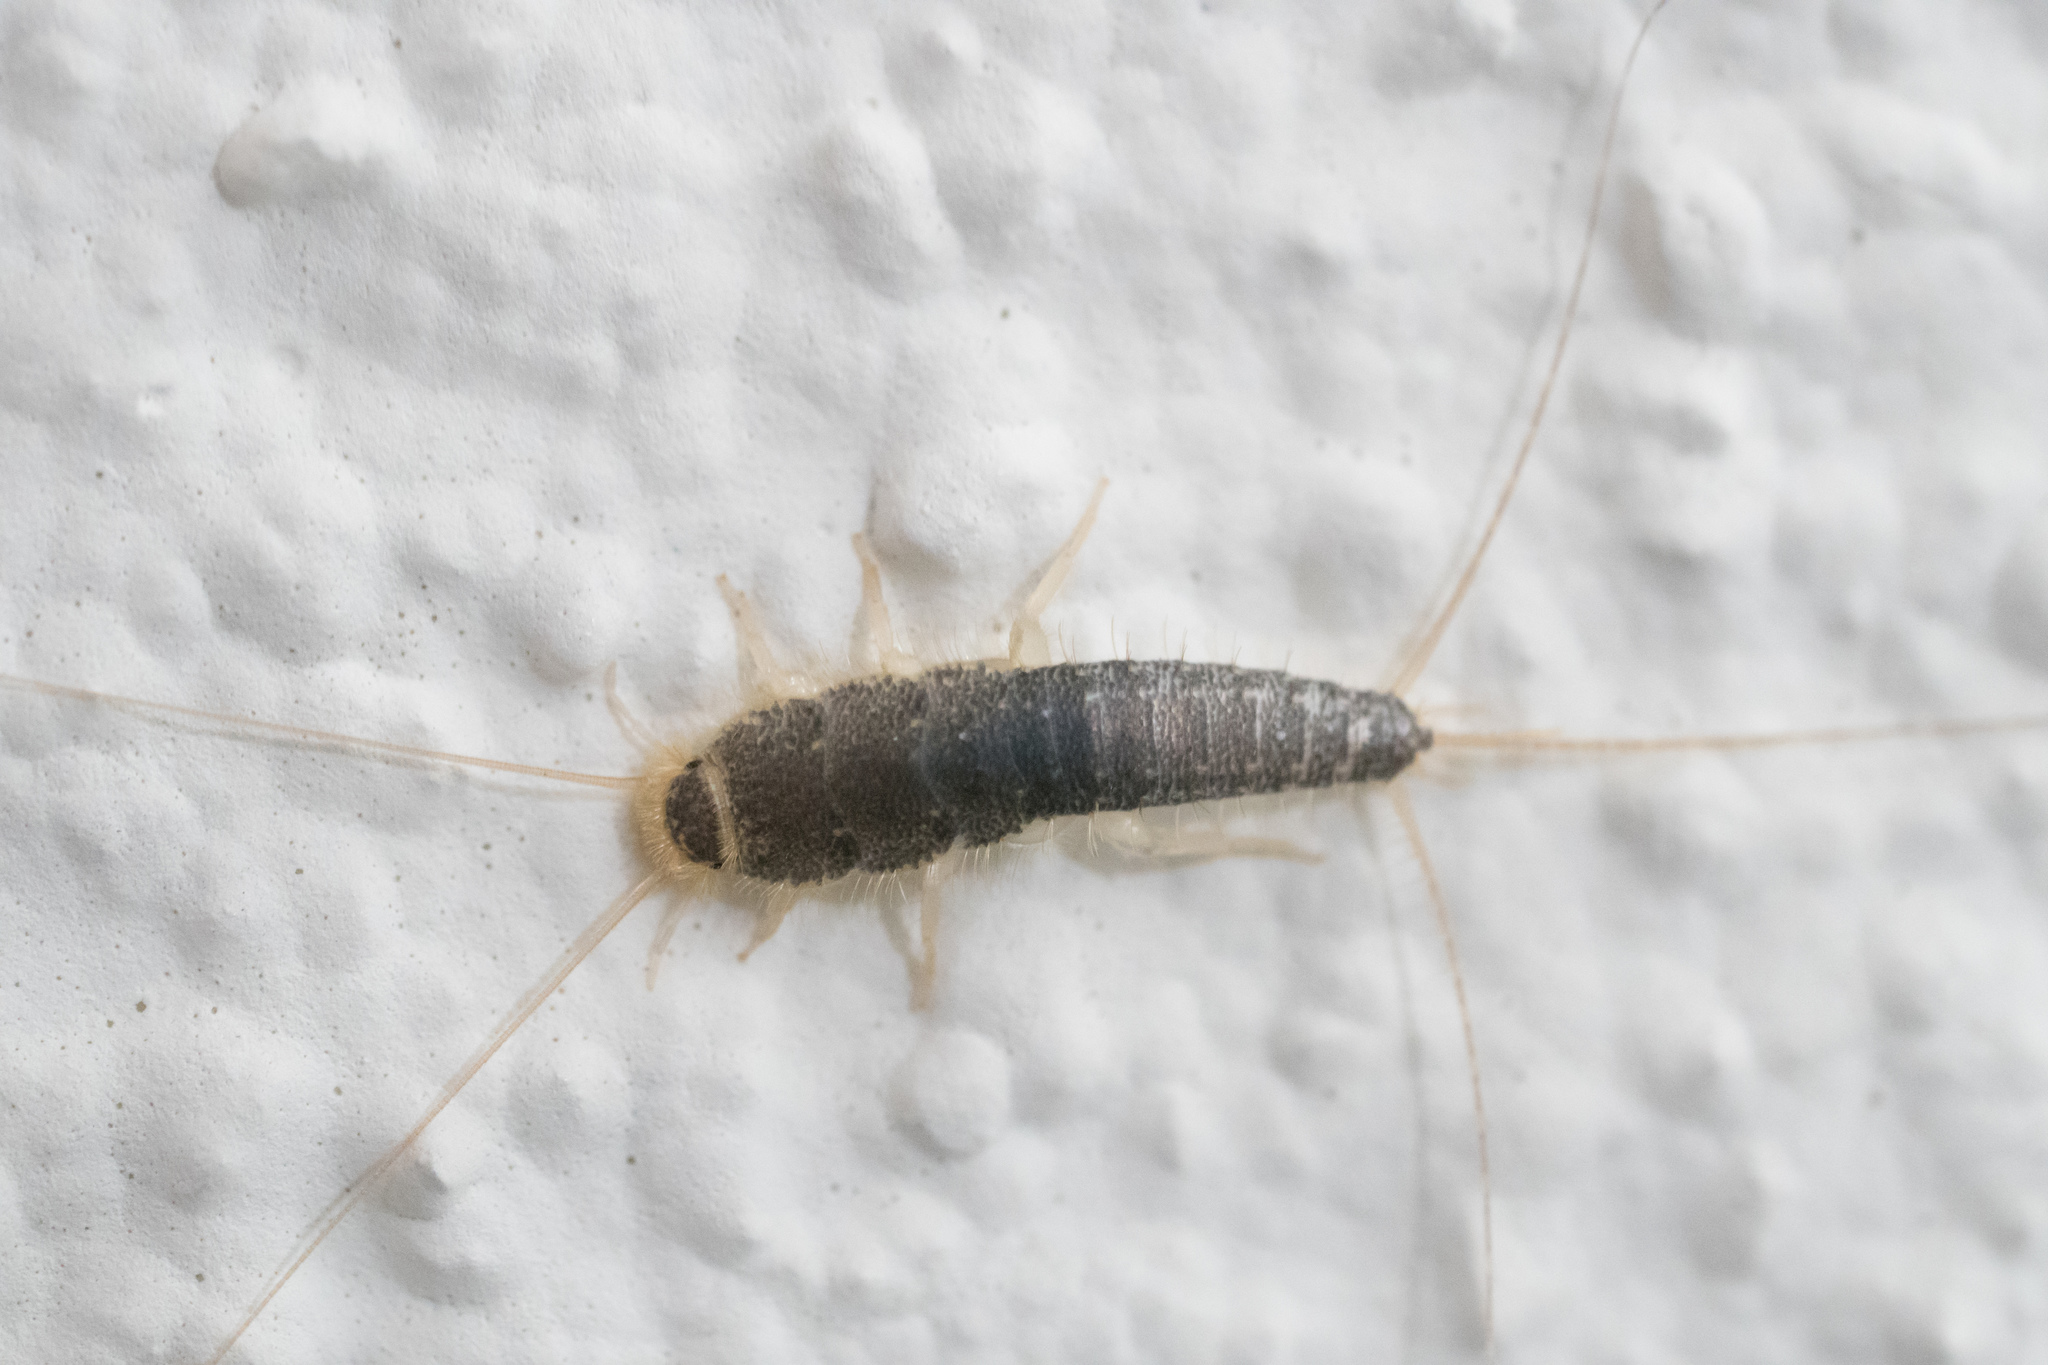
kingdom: Animalia
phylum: Arthropoda
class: Insecta
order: Zygentoma
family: Lepismatidae
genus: Ctenolepisma
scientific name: Ctenolepisma longicaudatum
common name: Silverfish
